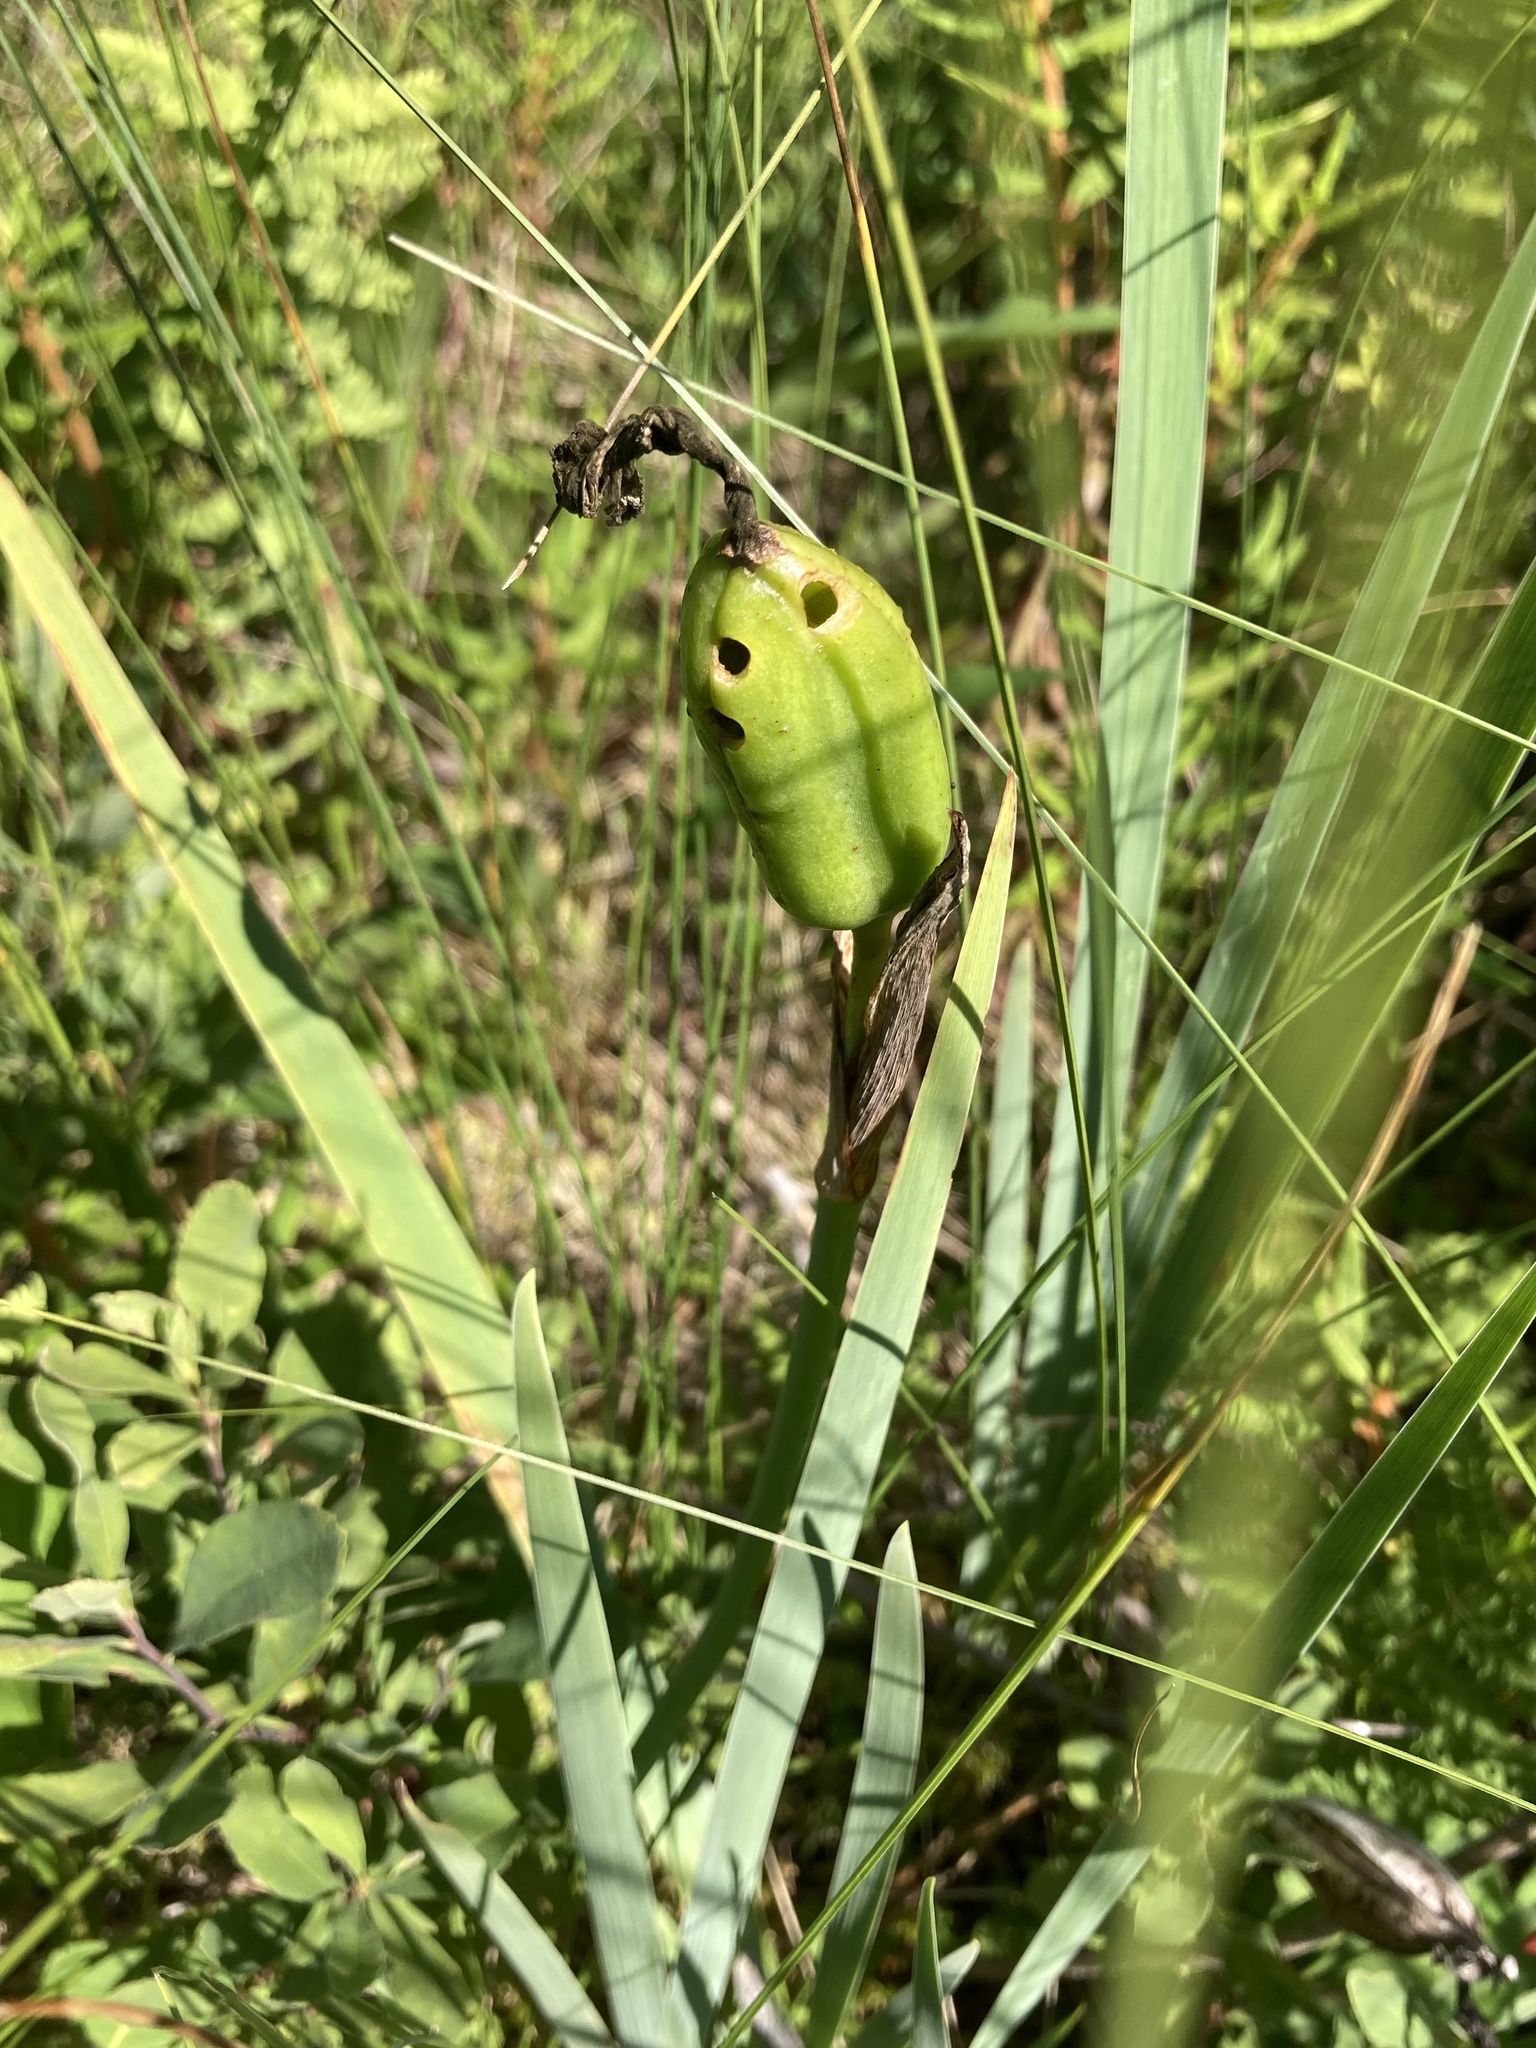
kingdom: Plantae
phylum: Tracheophyta
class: Liliopsida
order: Asparagales
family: Iridaceae
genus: Iris
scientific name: Iris versicolor
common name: Purple iris
